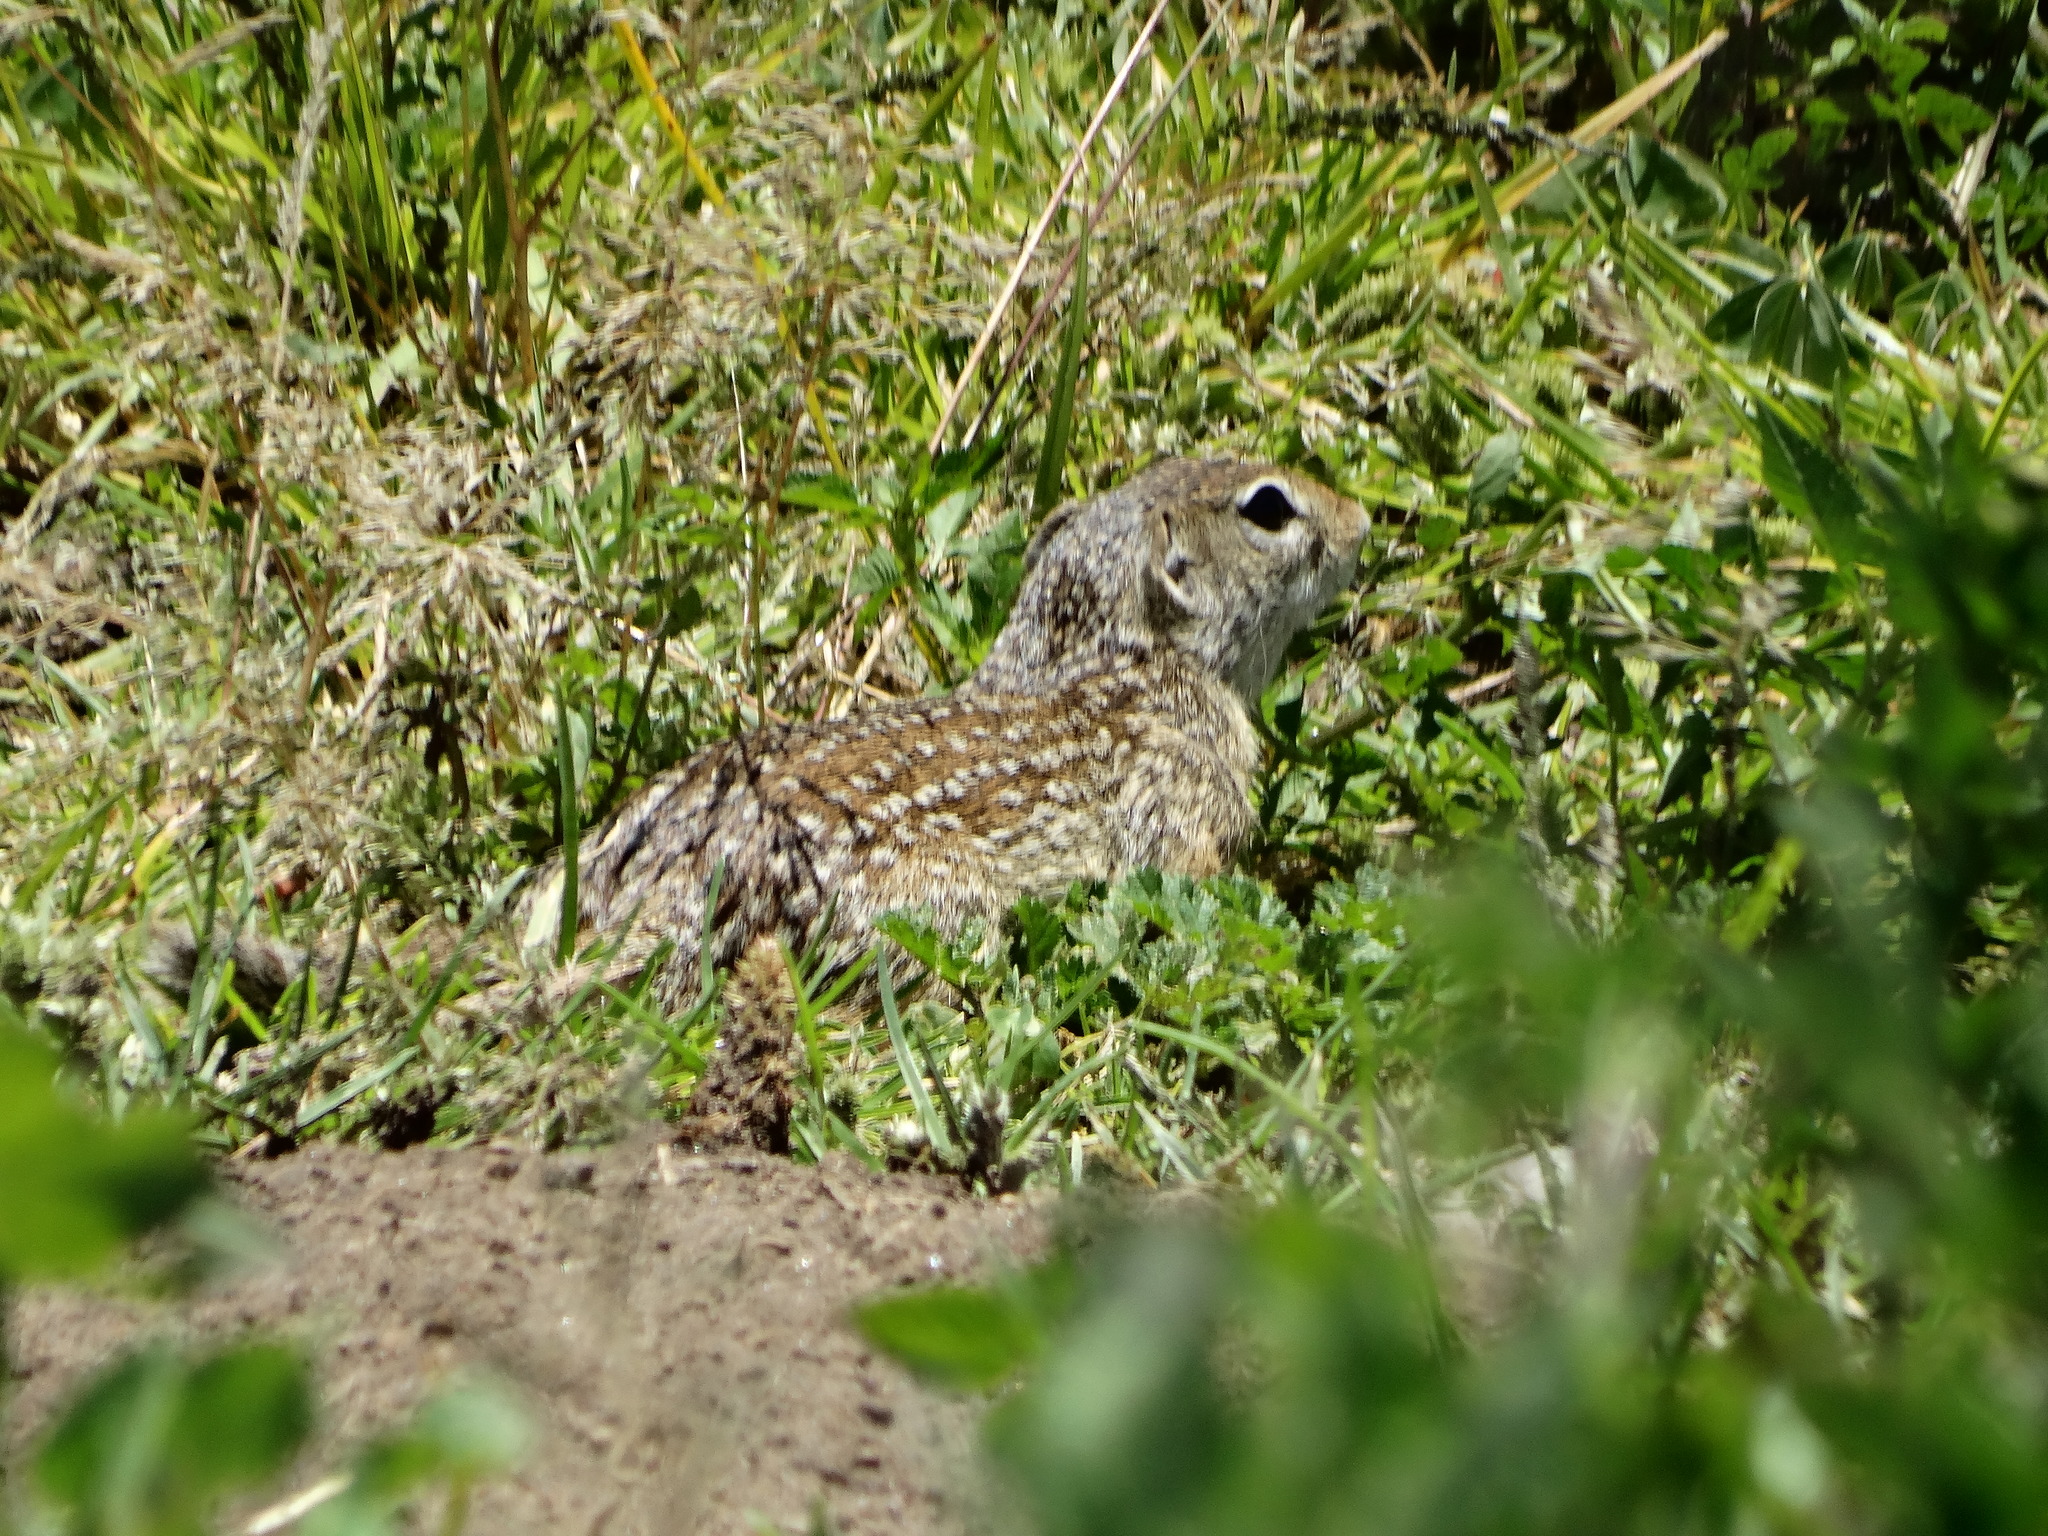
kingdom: Animalia
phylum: Chordata
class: Mammalia
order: Rodentia
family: Sciuridae
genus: Ictidomys
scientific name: Ictidomys mexicanus
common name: Mexican ground squirrel
